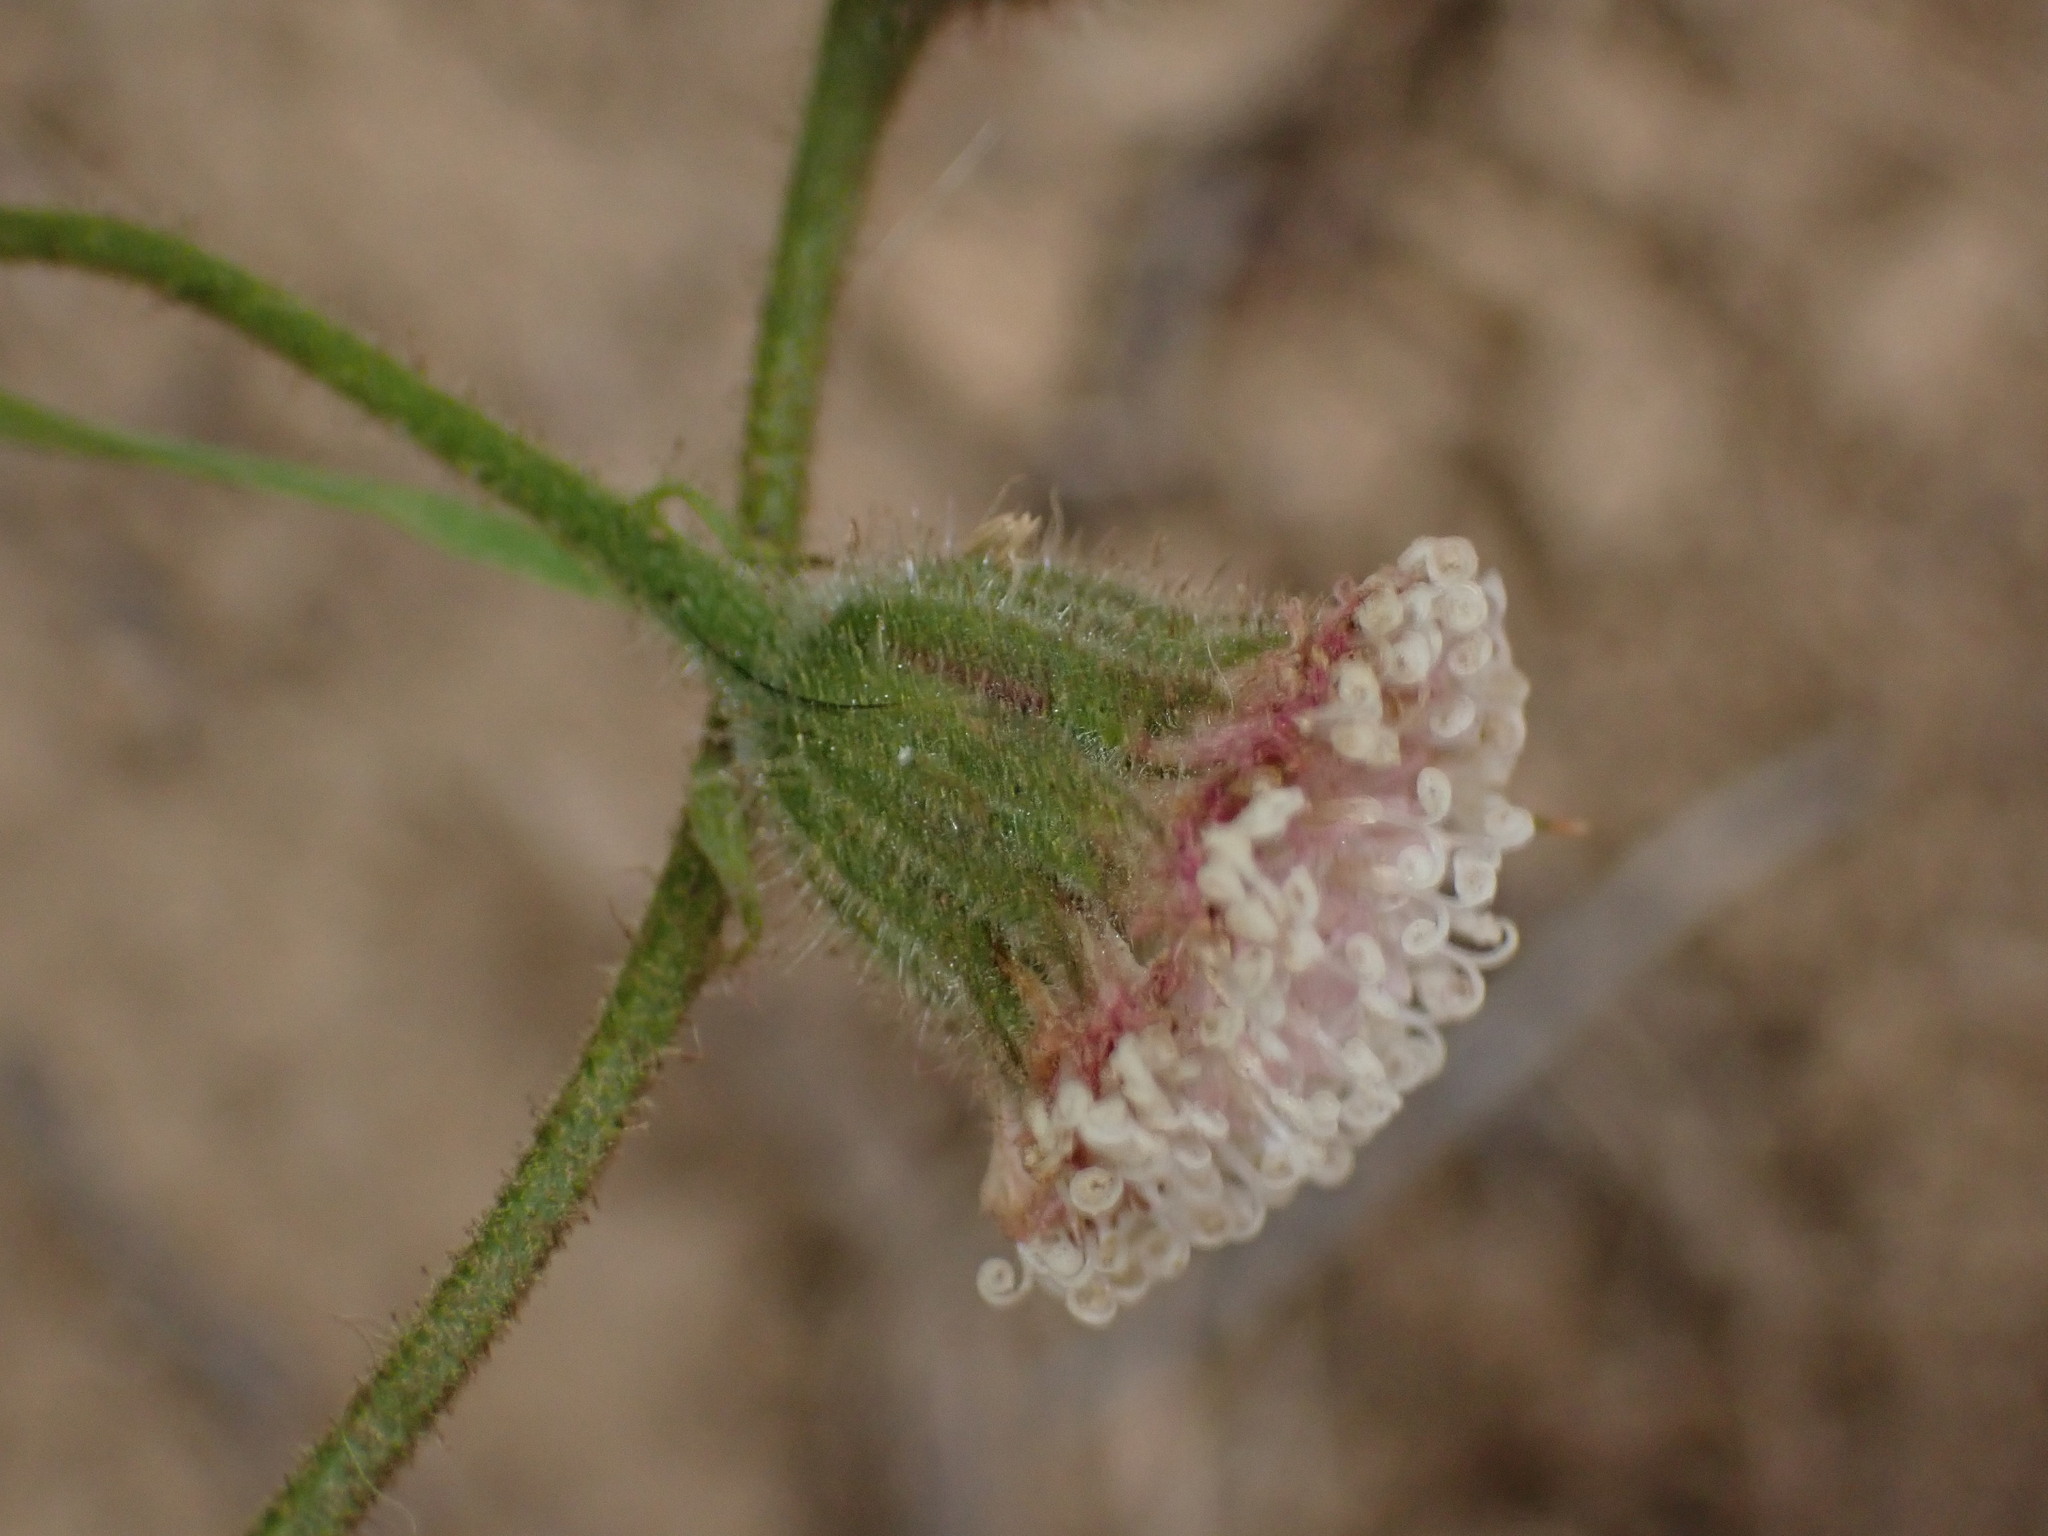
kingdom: Plantae
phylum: Tracheophyta
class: Magnoliopsida
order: Asterales
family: Asteraceae
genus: Chaenactis
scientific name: Chaenactis artemisiifolia
